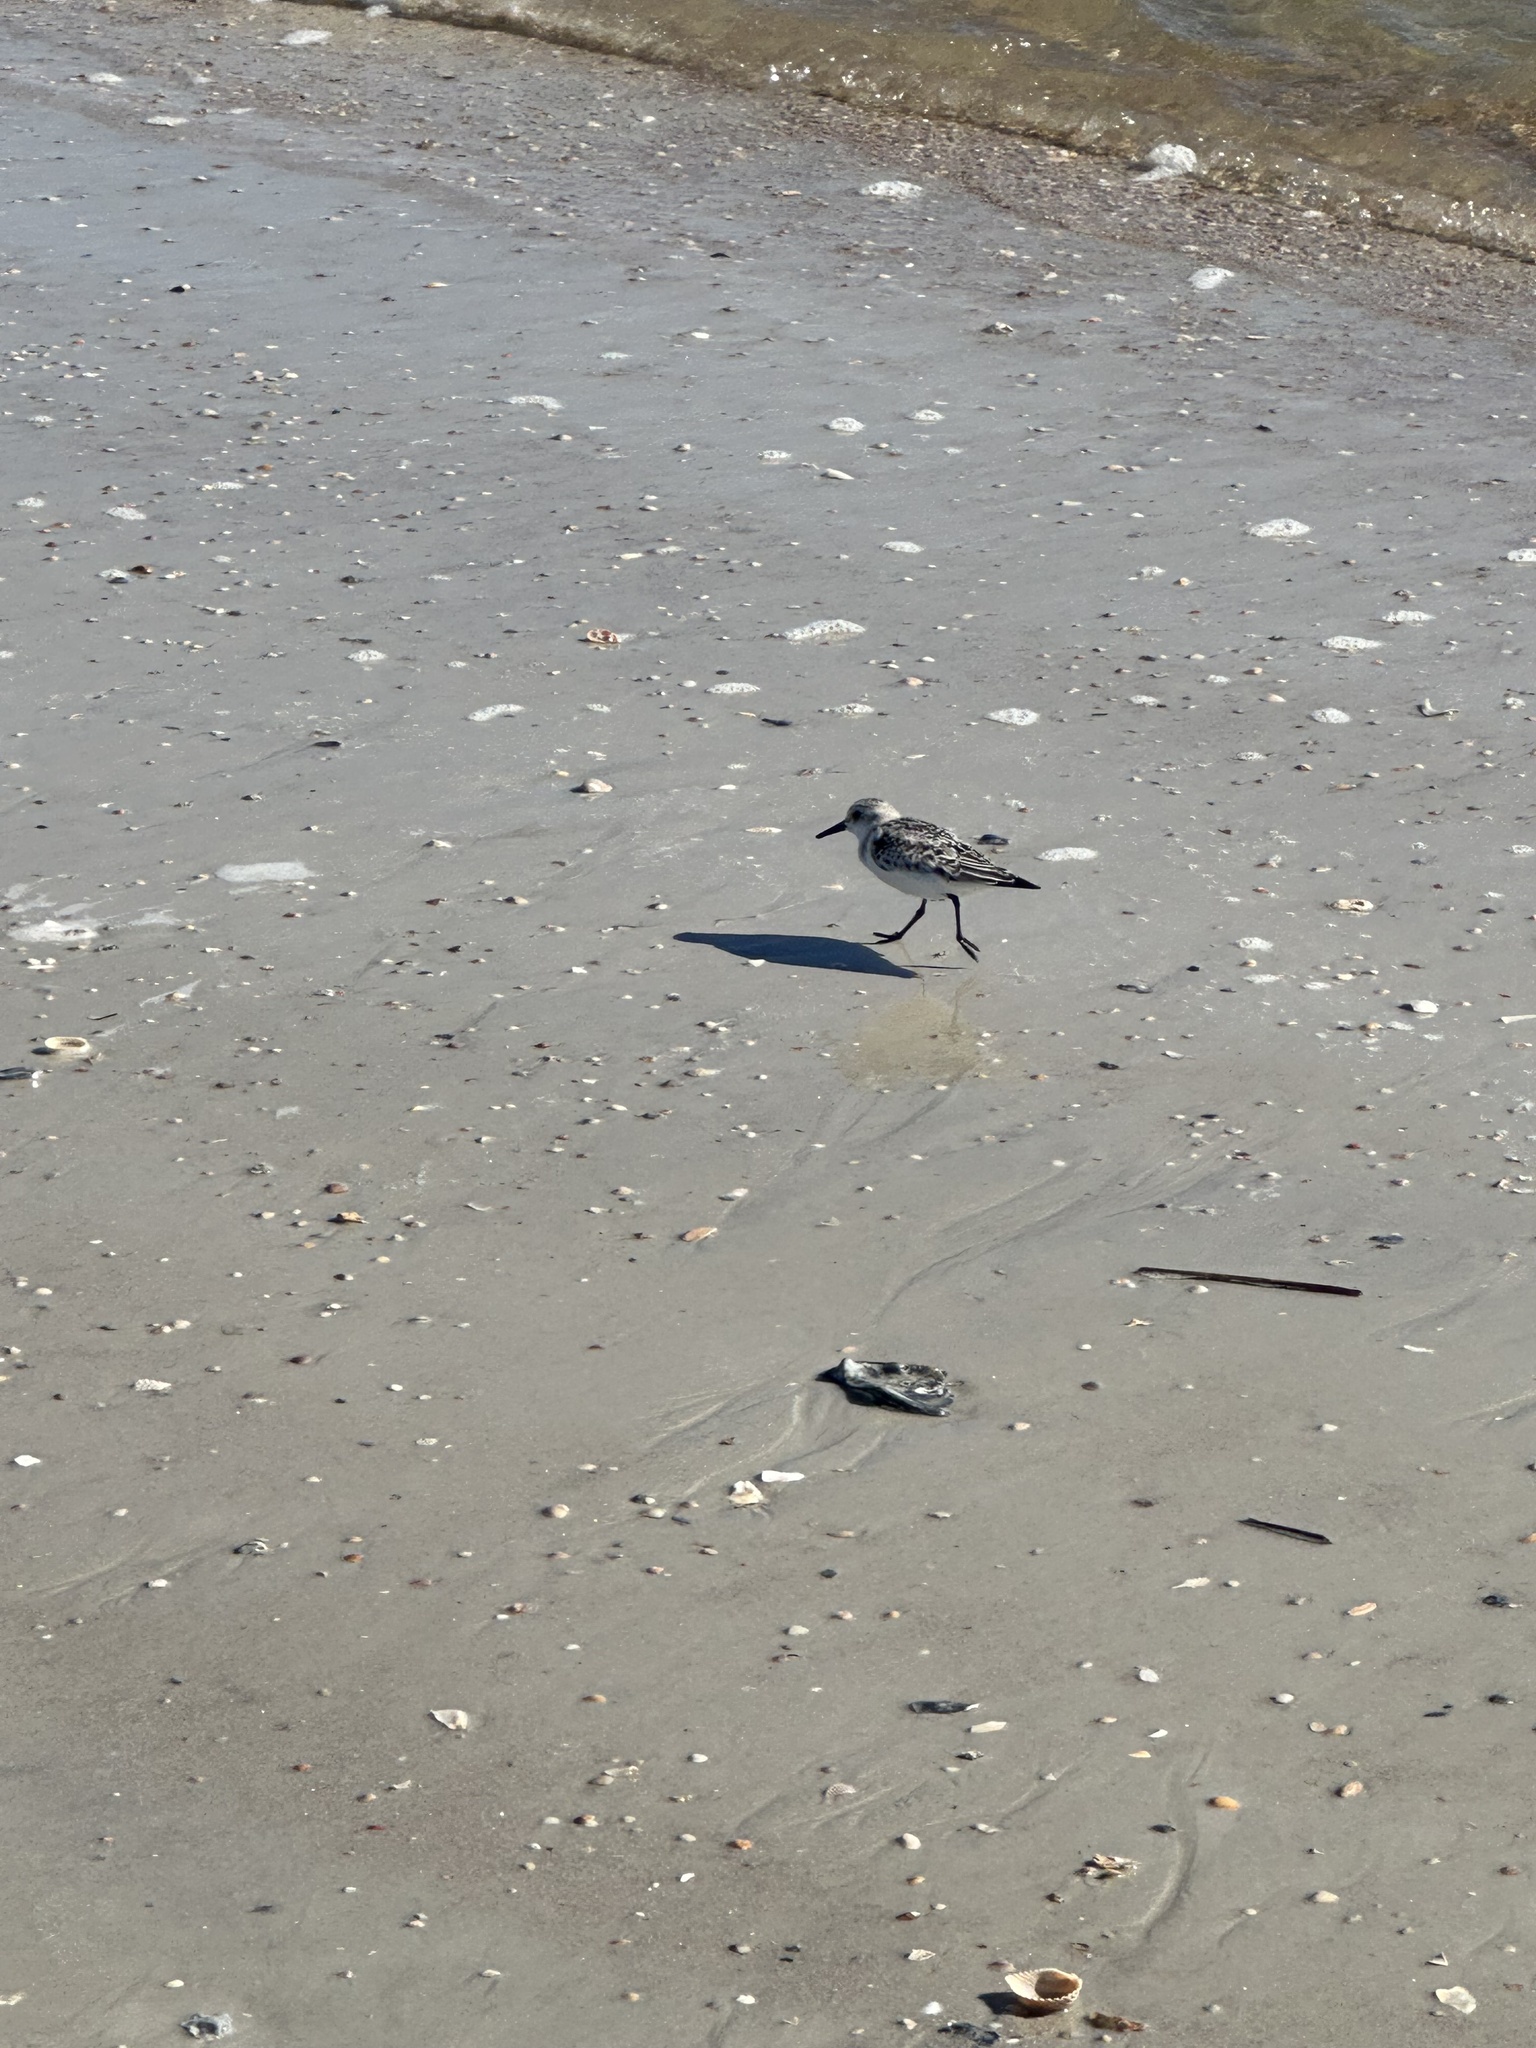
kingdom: Animalia
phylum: Chordata
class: Aves
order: Charadriiformes
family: Scolopacidae
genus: Calidris
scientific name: Calidris alba
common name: Sanderling
